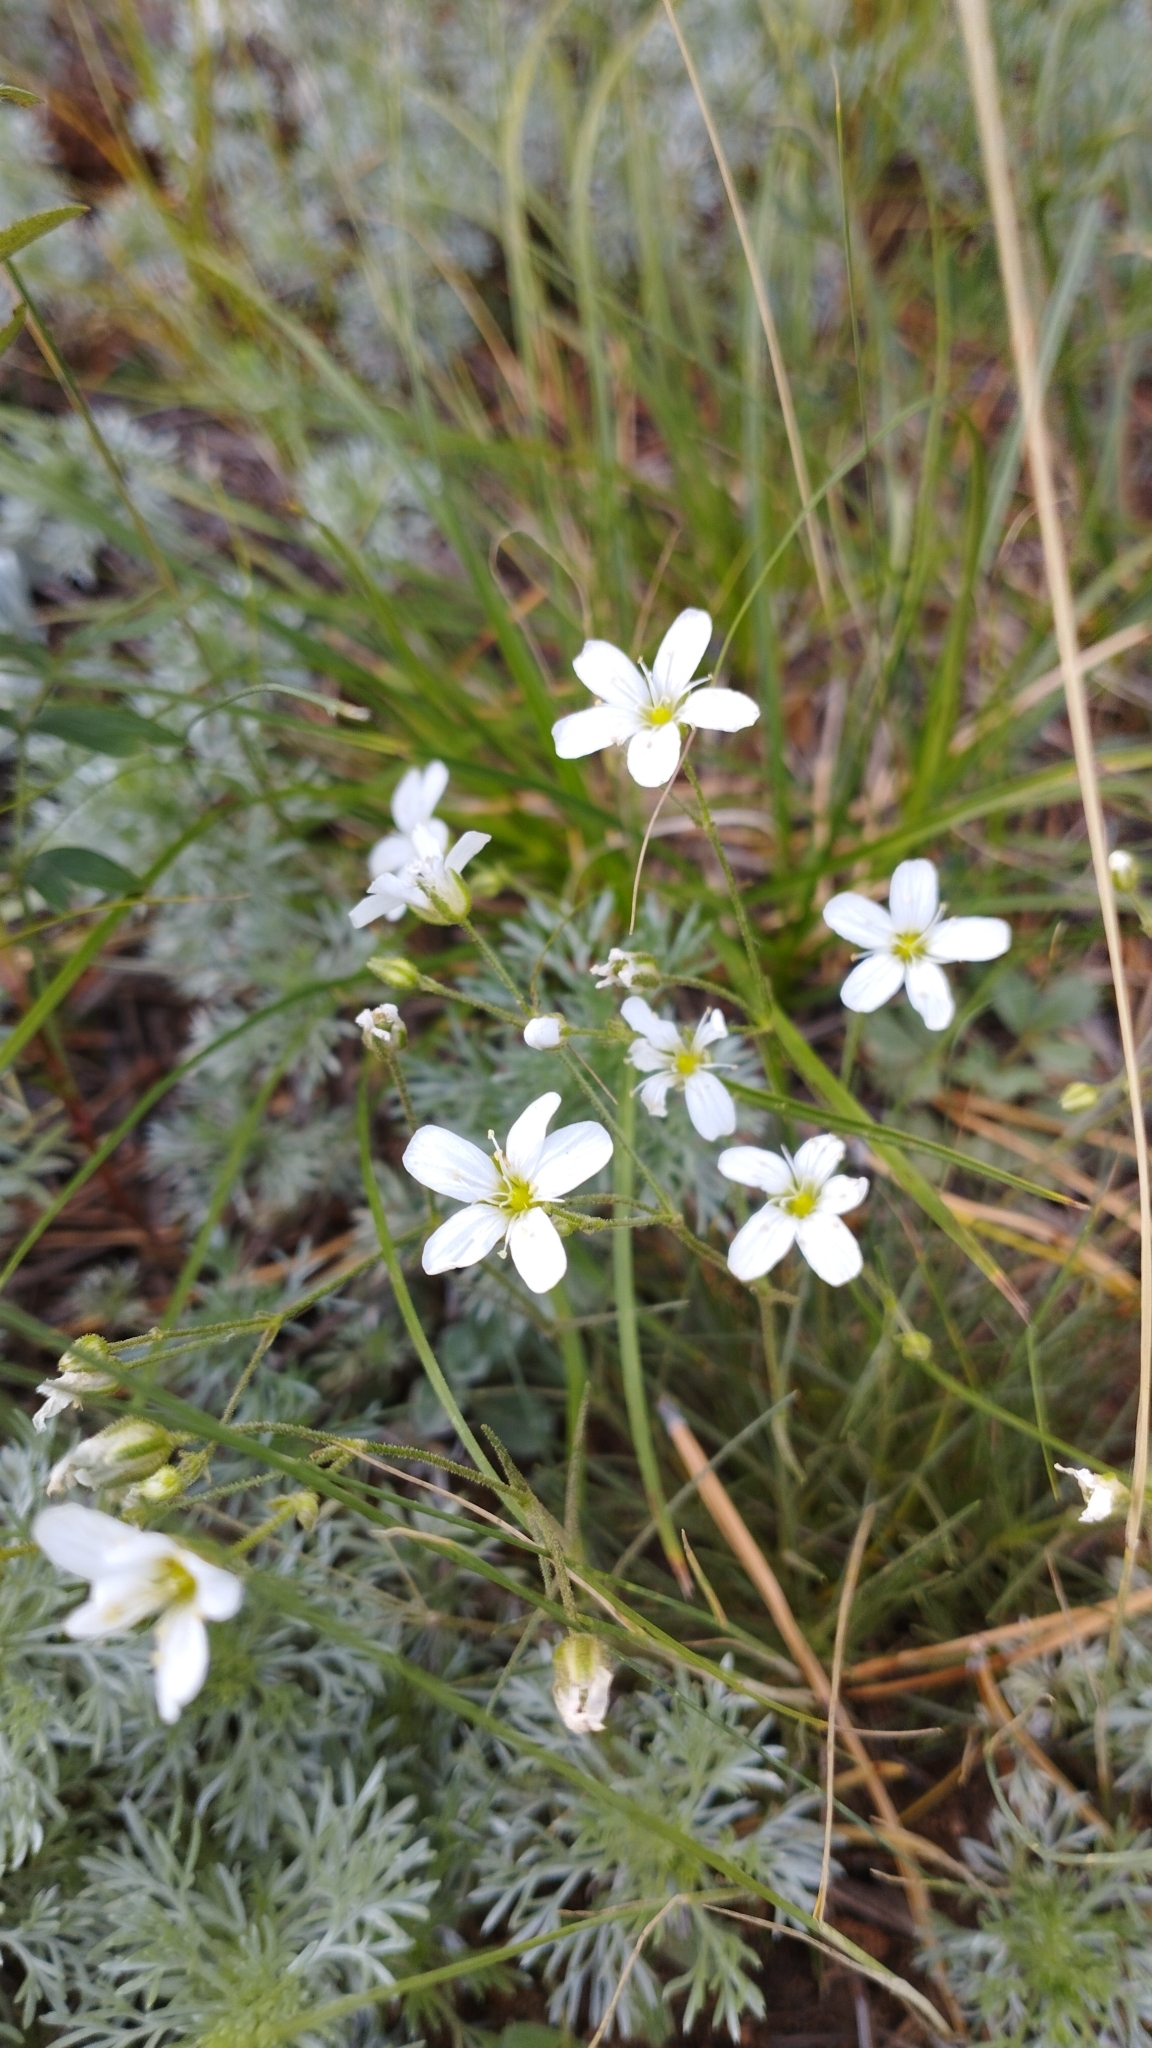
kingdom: Plantae
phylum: Tracheophyta
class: Magnoliopsida
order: Caryophyllales
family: Caryophyllaceae
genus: Eremogone
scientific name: Eremogone meyeri
